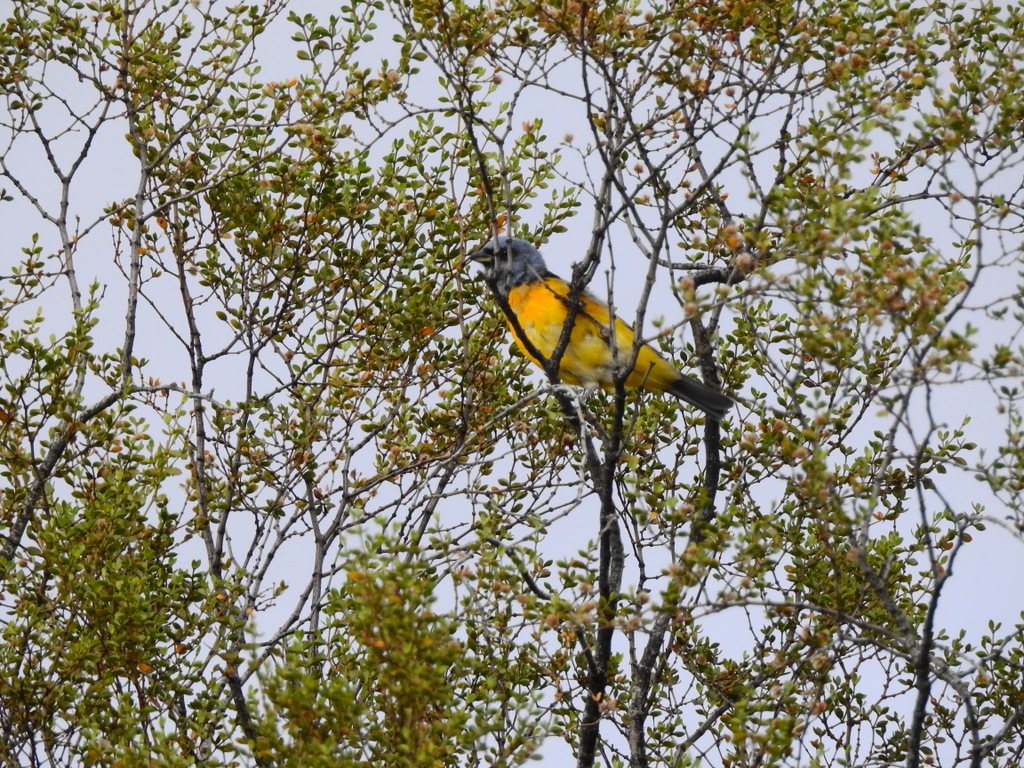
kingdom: Animalia
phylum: Chordata
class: Aves
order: Passeriformes
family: Thraupidae
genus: Rauenia
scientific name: Rauenia bonariensis
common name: Blue-and-yellow tanager
